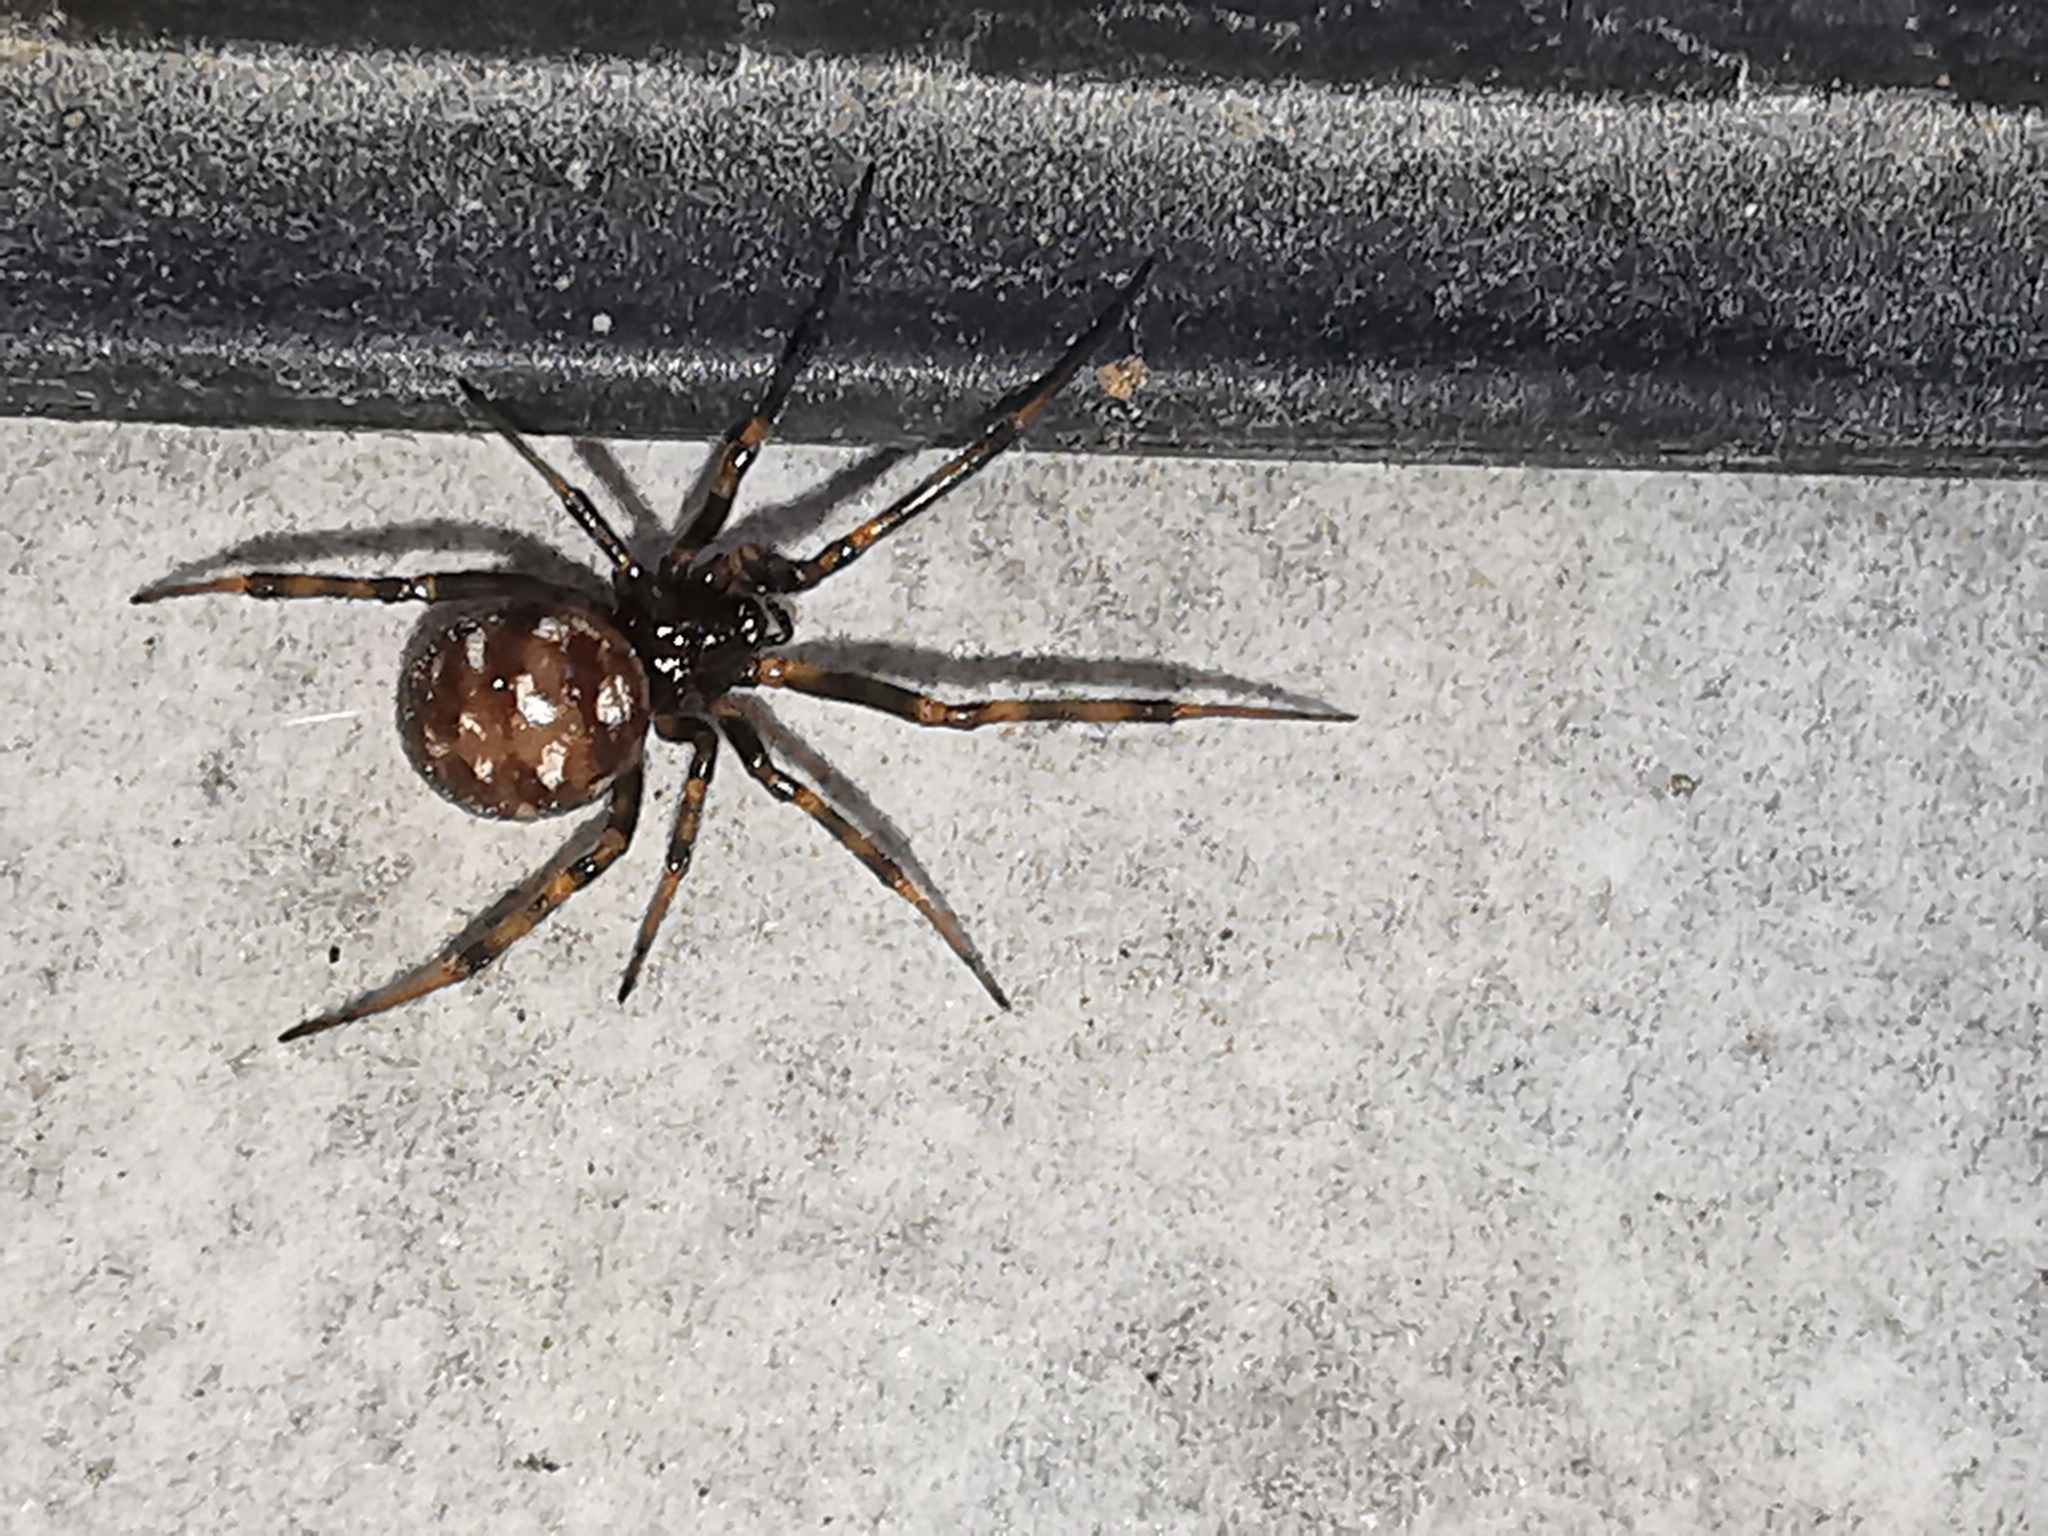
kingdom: Animalia
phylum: Arthropoda
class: Arachnida
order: Araneae
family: Theridiidae
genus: Steatoda
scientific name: Steatoda triangulosa
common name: Triangulate bud spider
